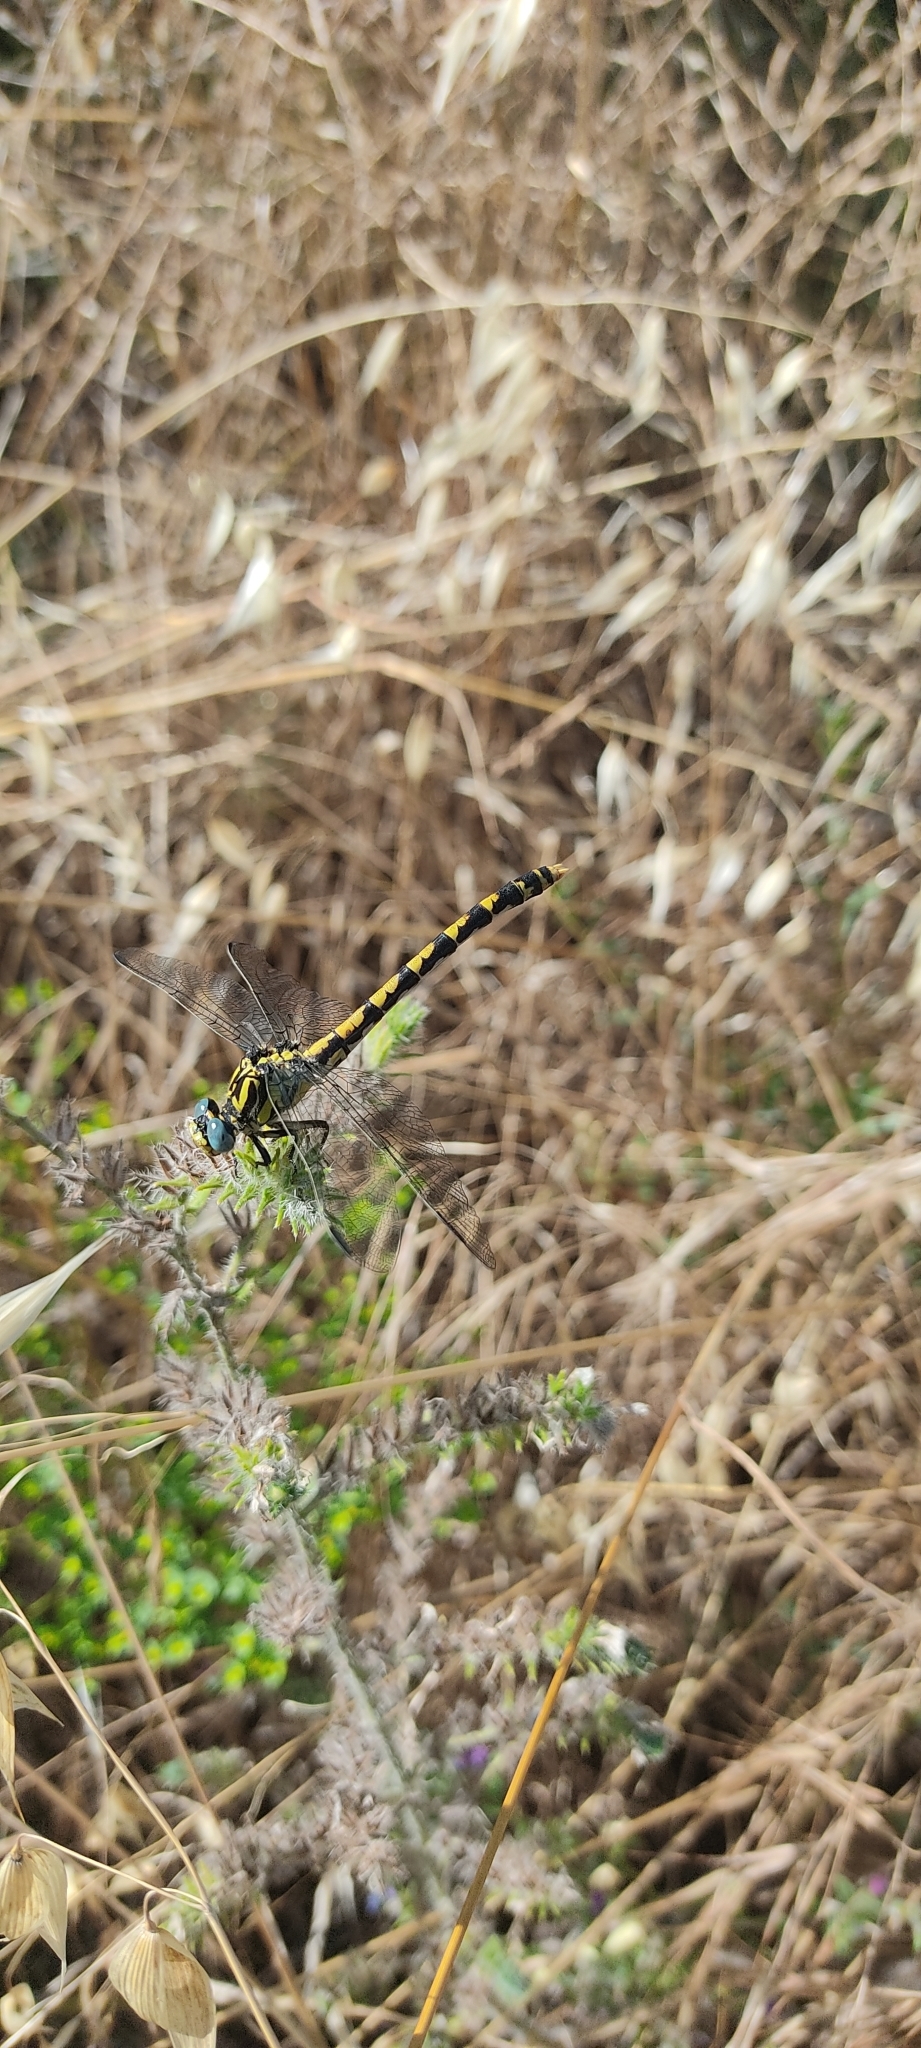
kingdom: Animalia
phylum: Arthropoda
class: Insecta
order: Odonata
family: Gomphidae
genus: Onychogomphus
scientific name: Onychogomphus uncatus
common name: Large pincertail
